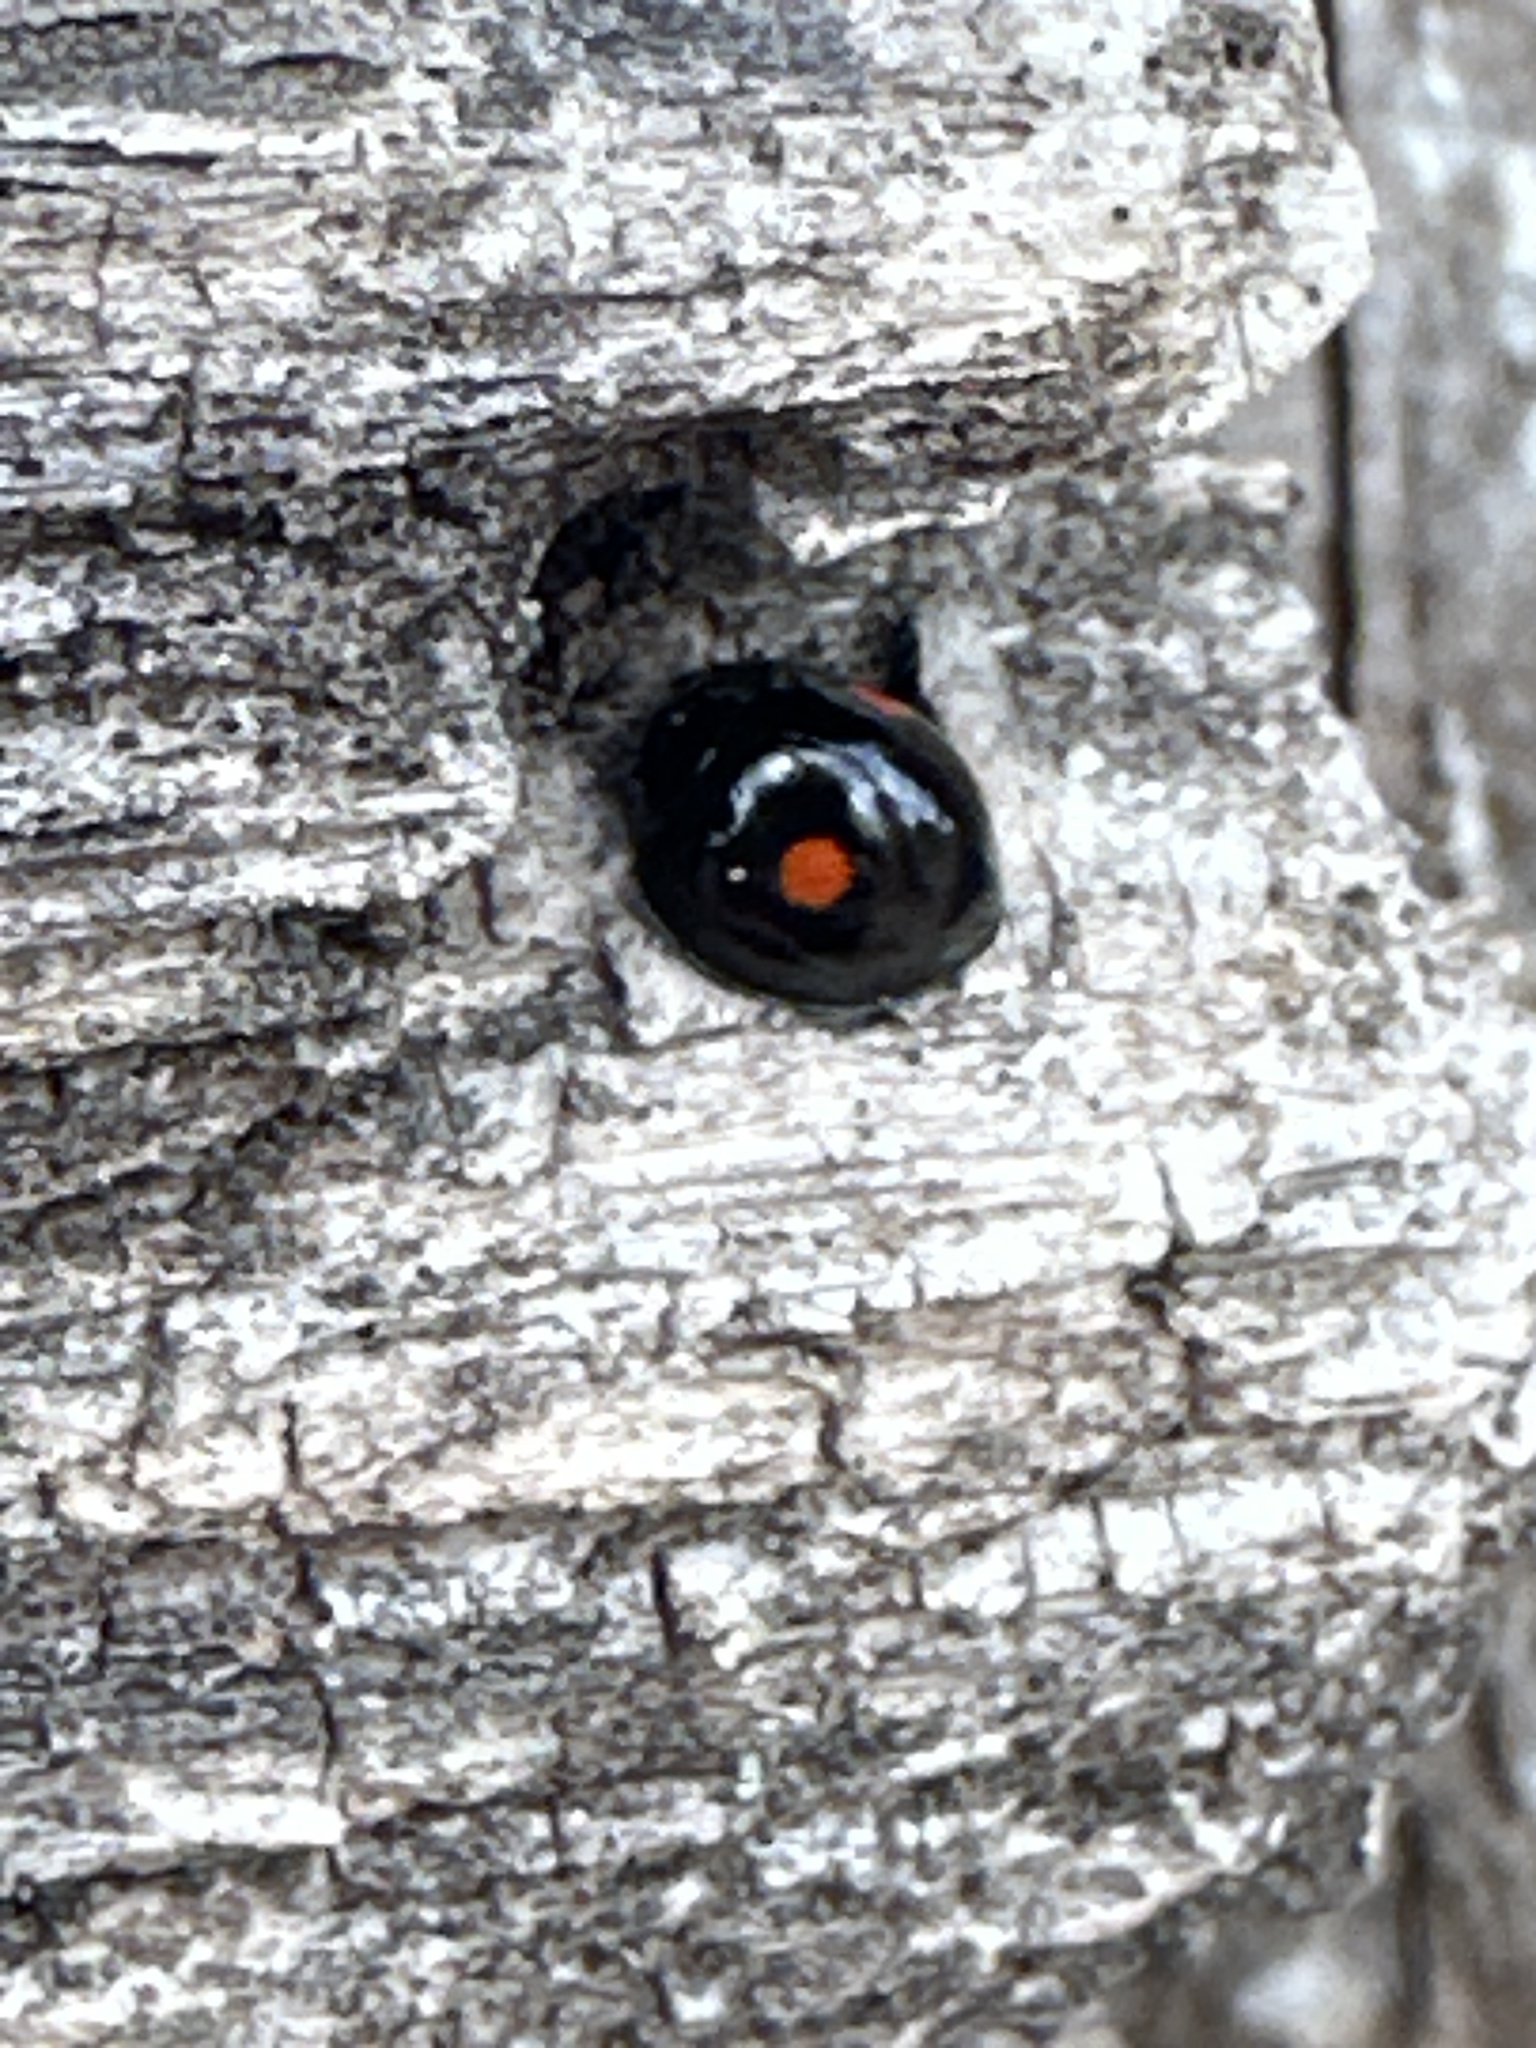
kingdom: Animalia
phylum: Arthropoda
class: Insecta
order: Coleoptera
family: Coccinellidae
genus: Chilocorus
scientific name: Chilocorus stigma
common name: Twicestabbed lady beetle
